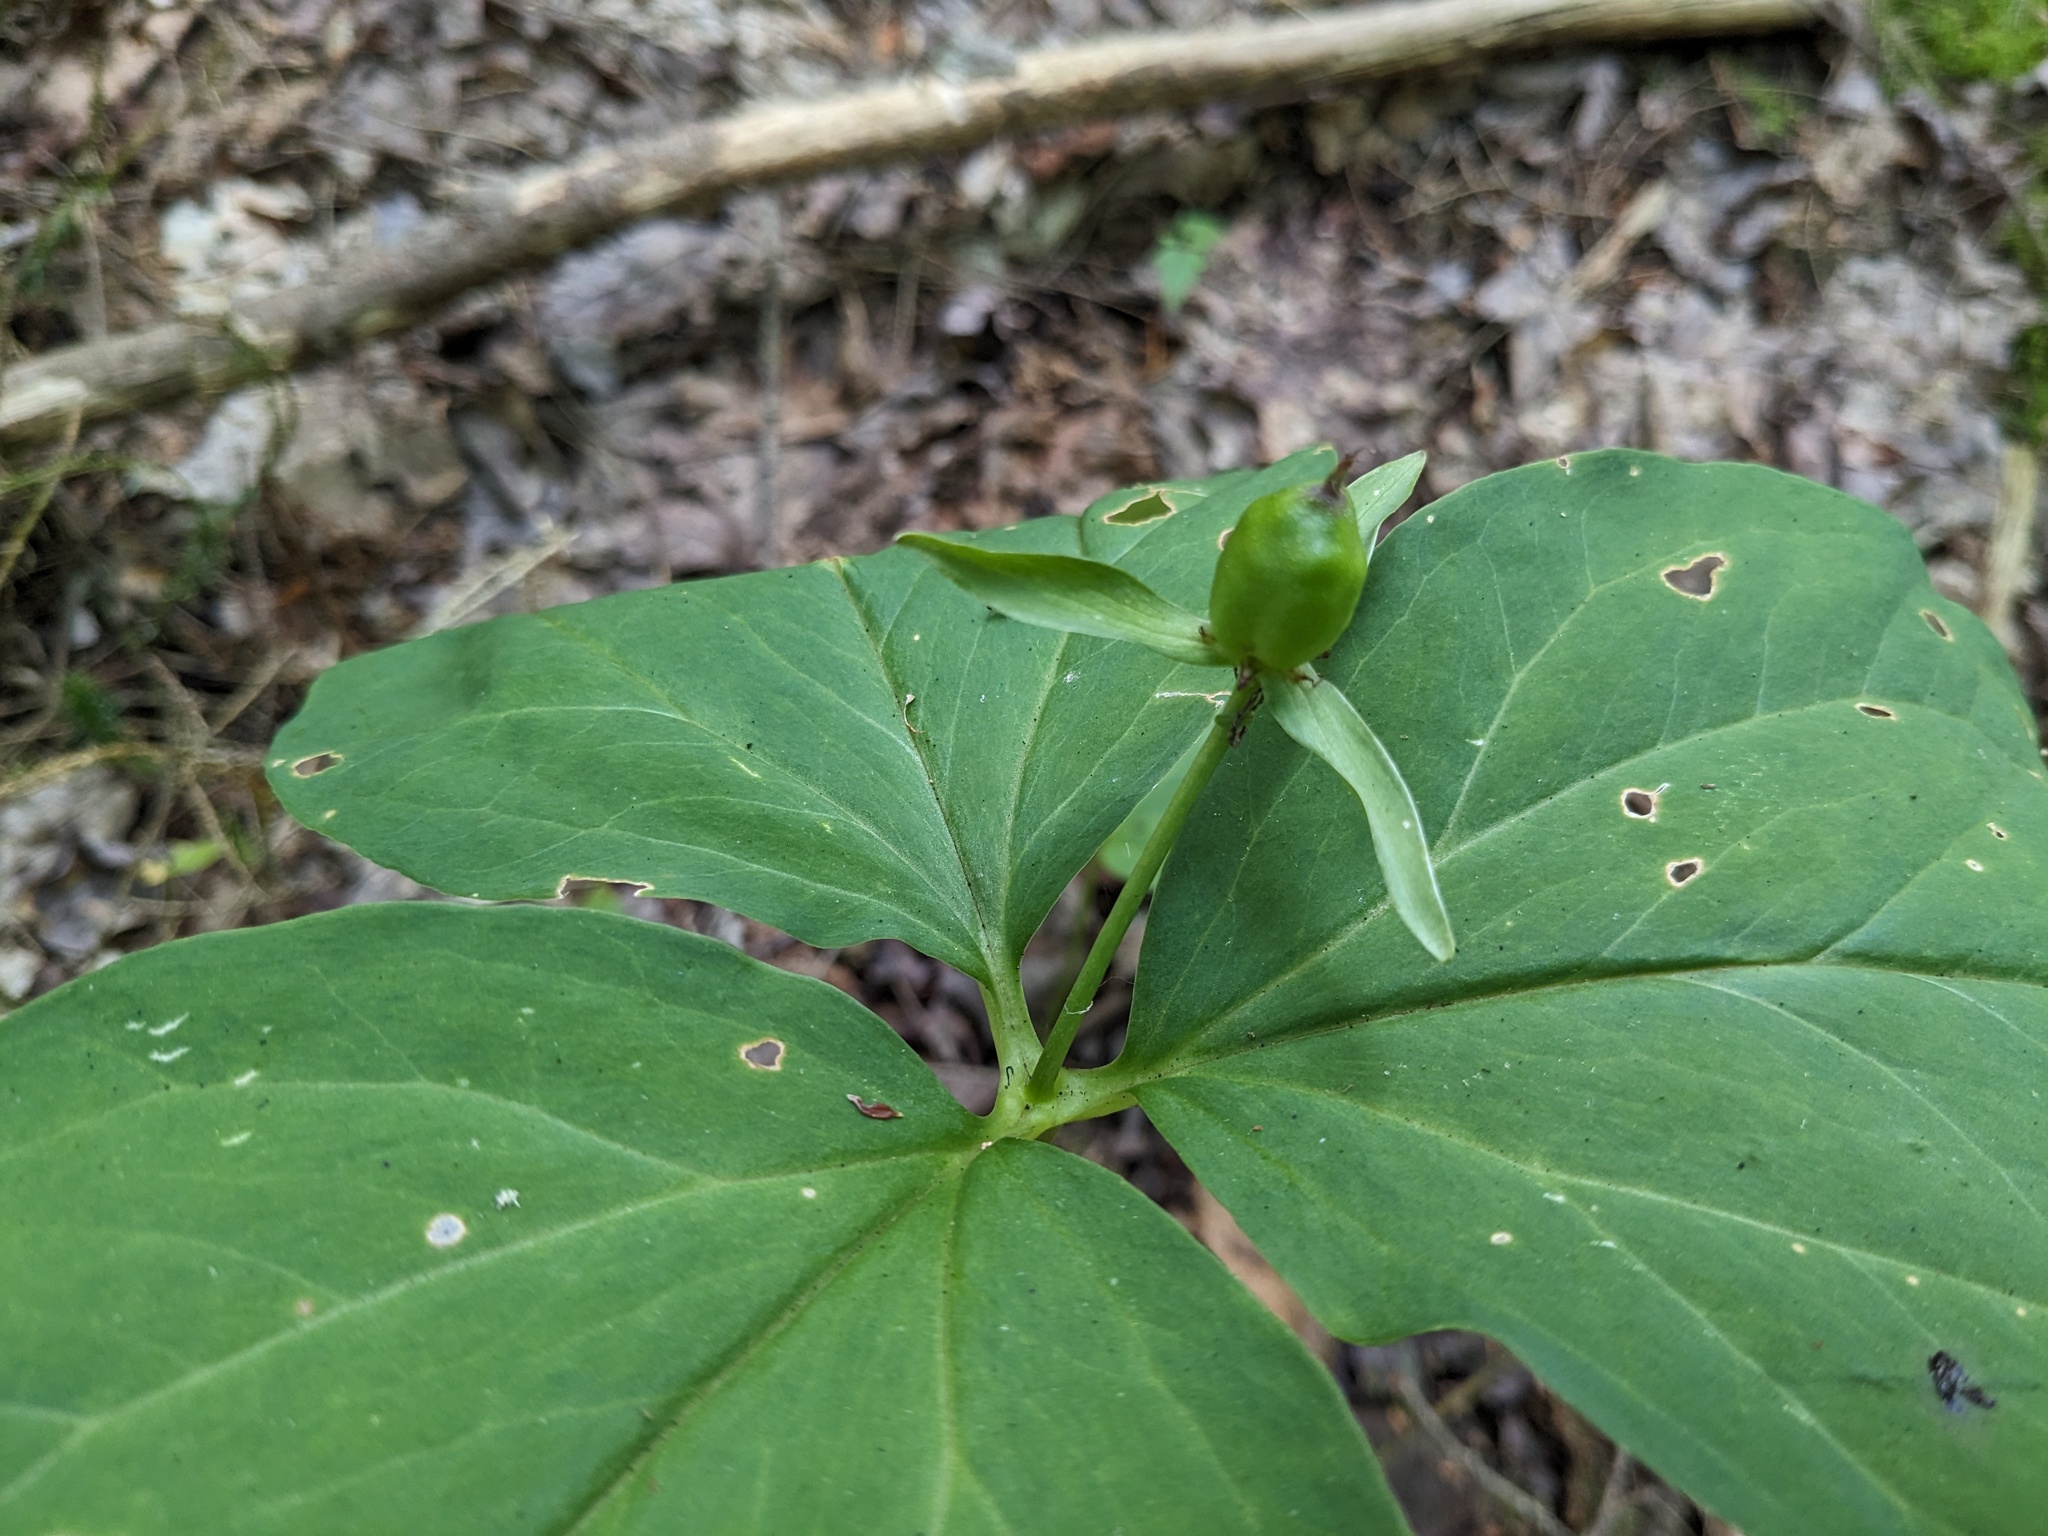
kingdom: Plantae
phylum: Tracheophyta
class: Liliopsida
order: Liliales
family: Melanthiaceae
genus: Trillium
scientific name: Trillium undulatum
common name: Paint trillium
